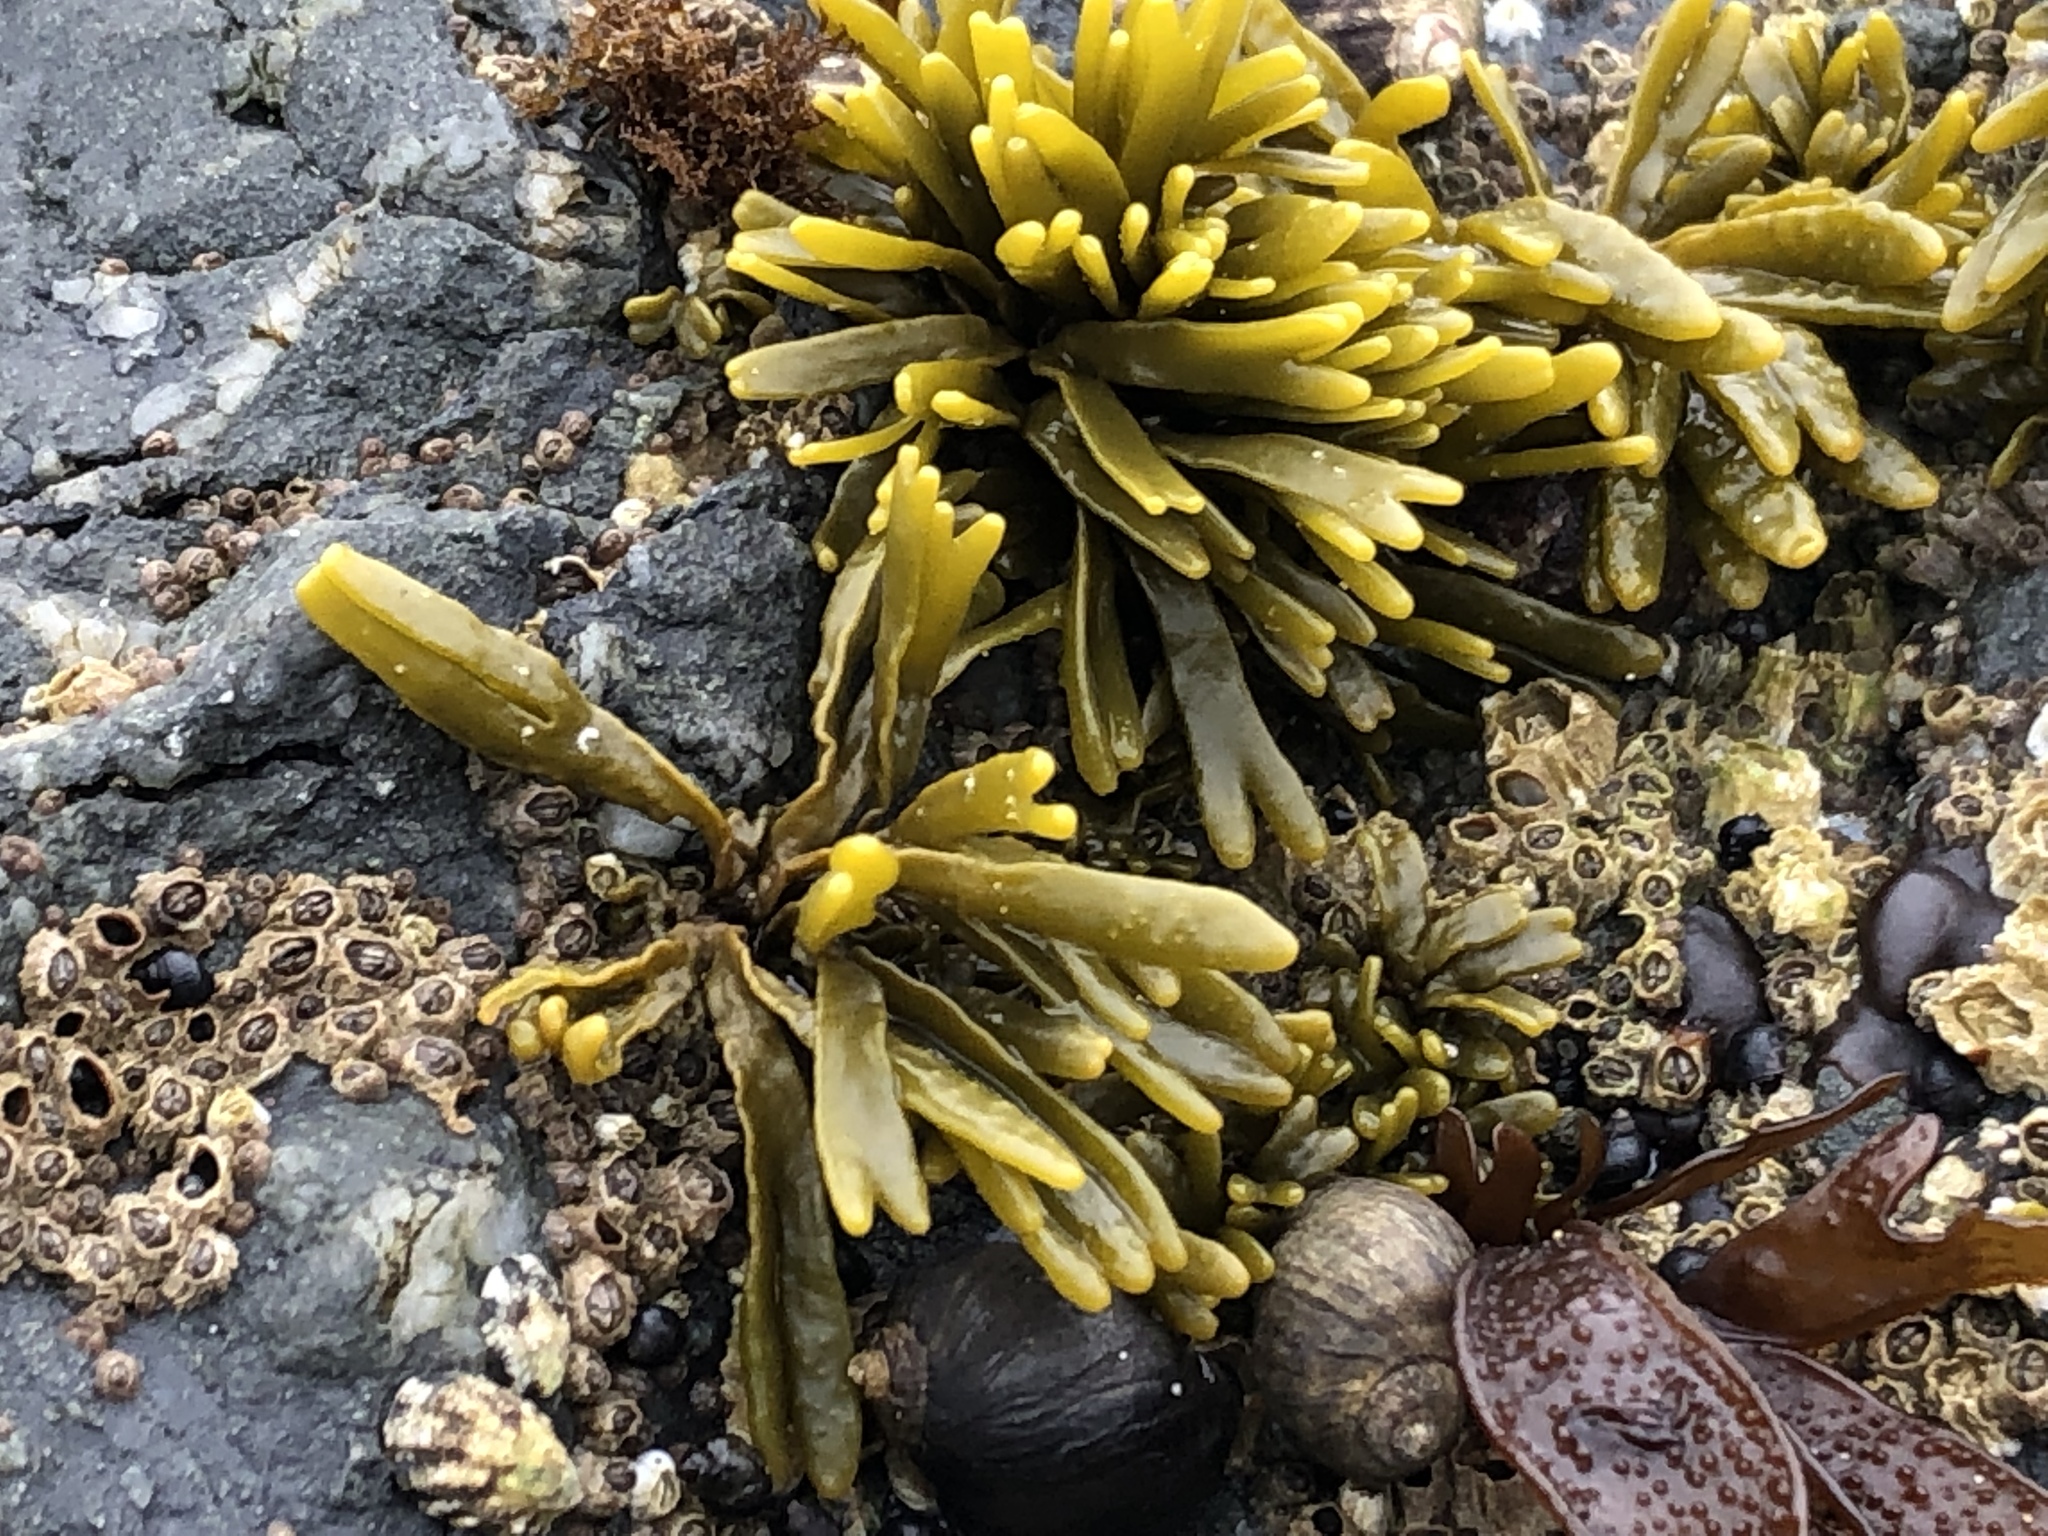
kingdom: Chromista
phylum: Ochrophyta
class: Phaeophyceae
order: Fucales
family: Fucaceae
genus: Pelvetiopsis
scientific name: Pelvetiopsis limitata
